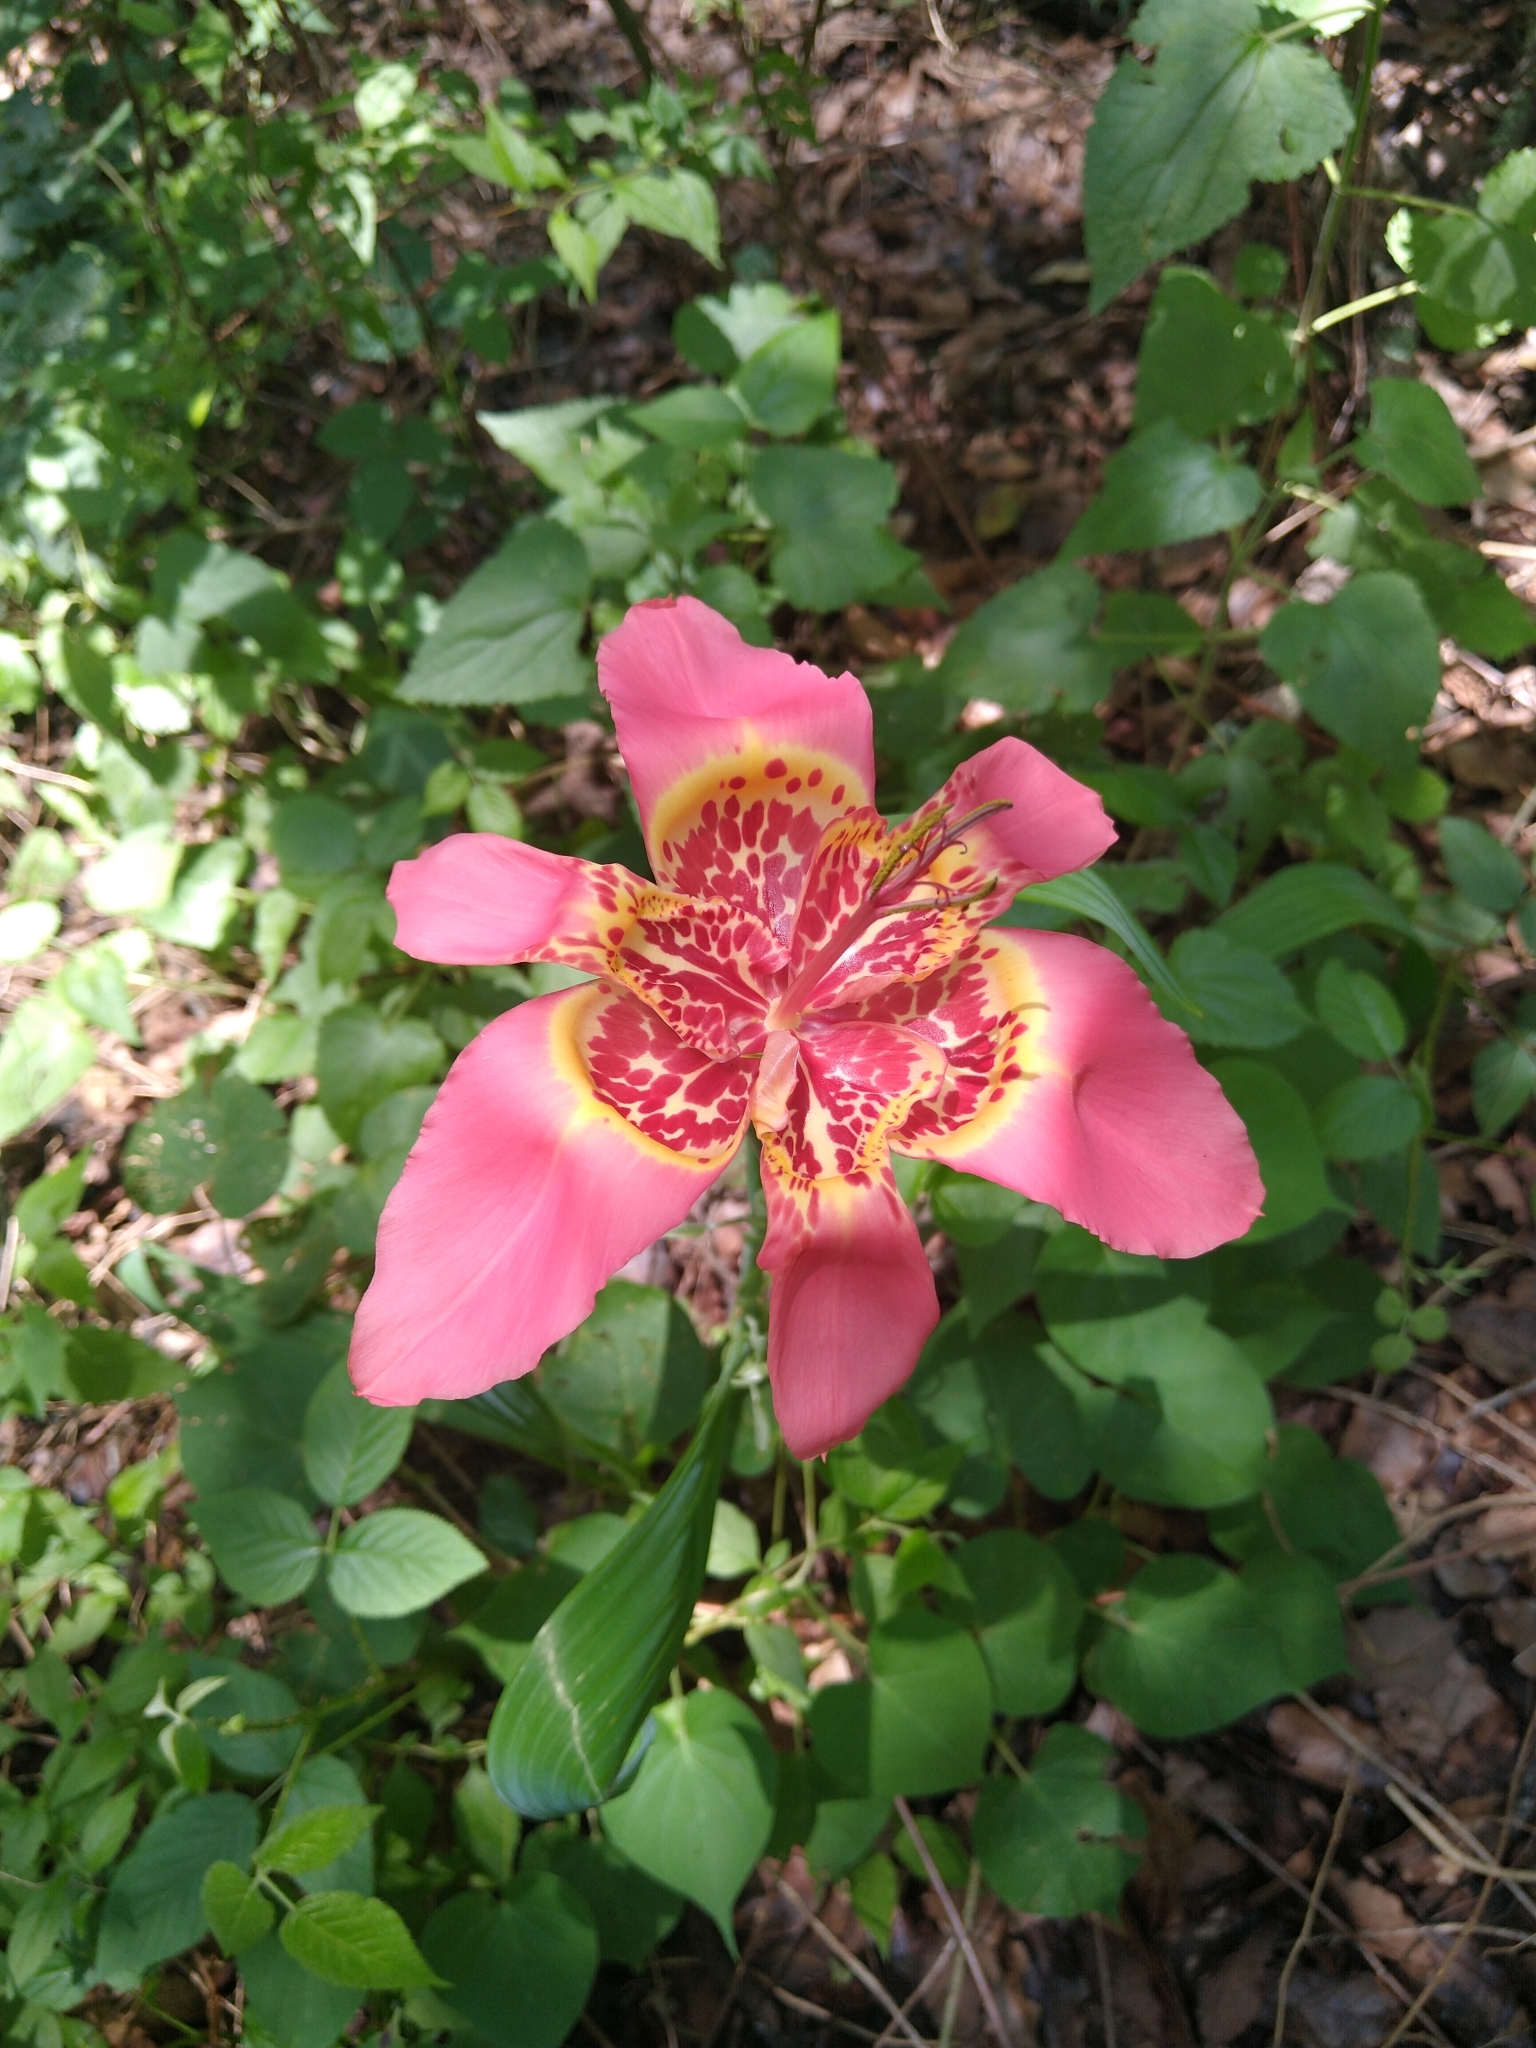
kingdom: Plantae
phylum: Tracheophyta
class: Liliopsida
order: Asparagales
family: Iridaceae
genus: Tigridia
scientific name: Tigridia pavonia
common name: Peacock-flower
